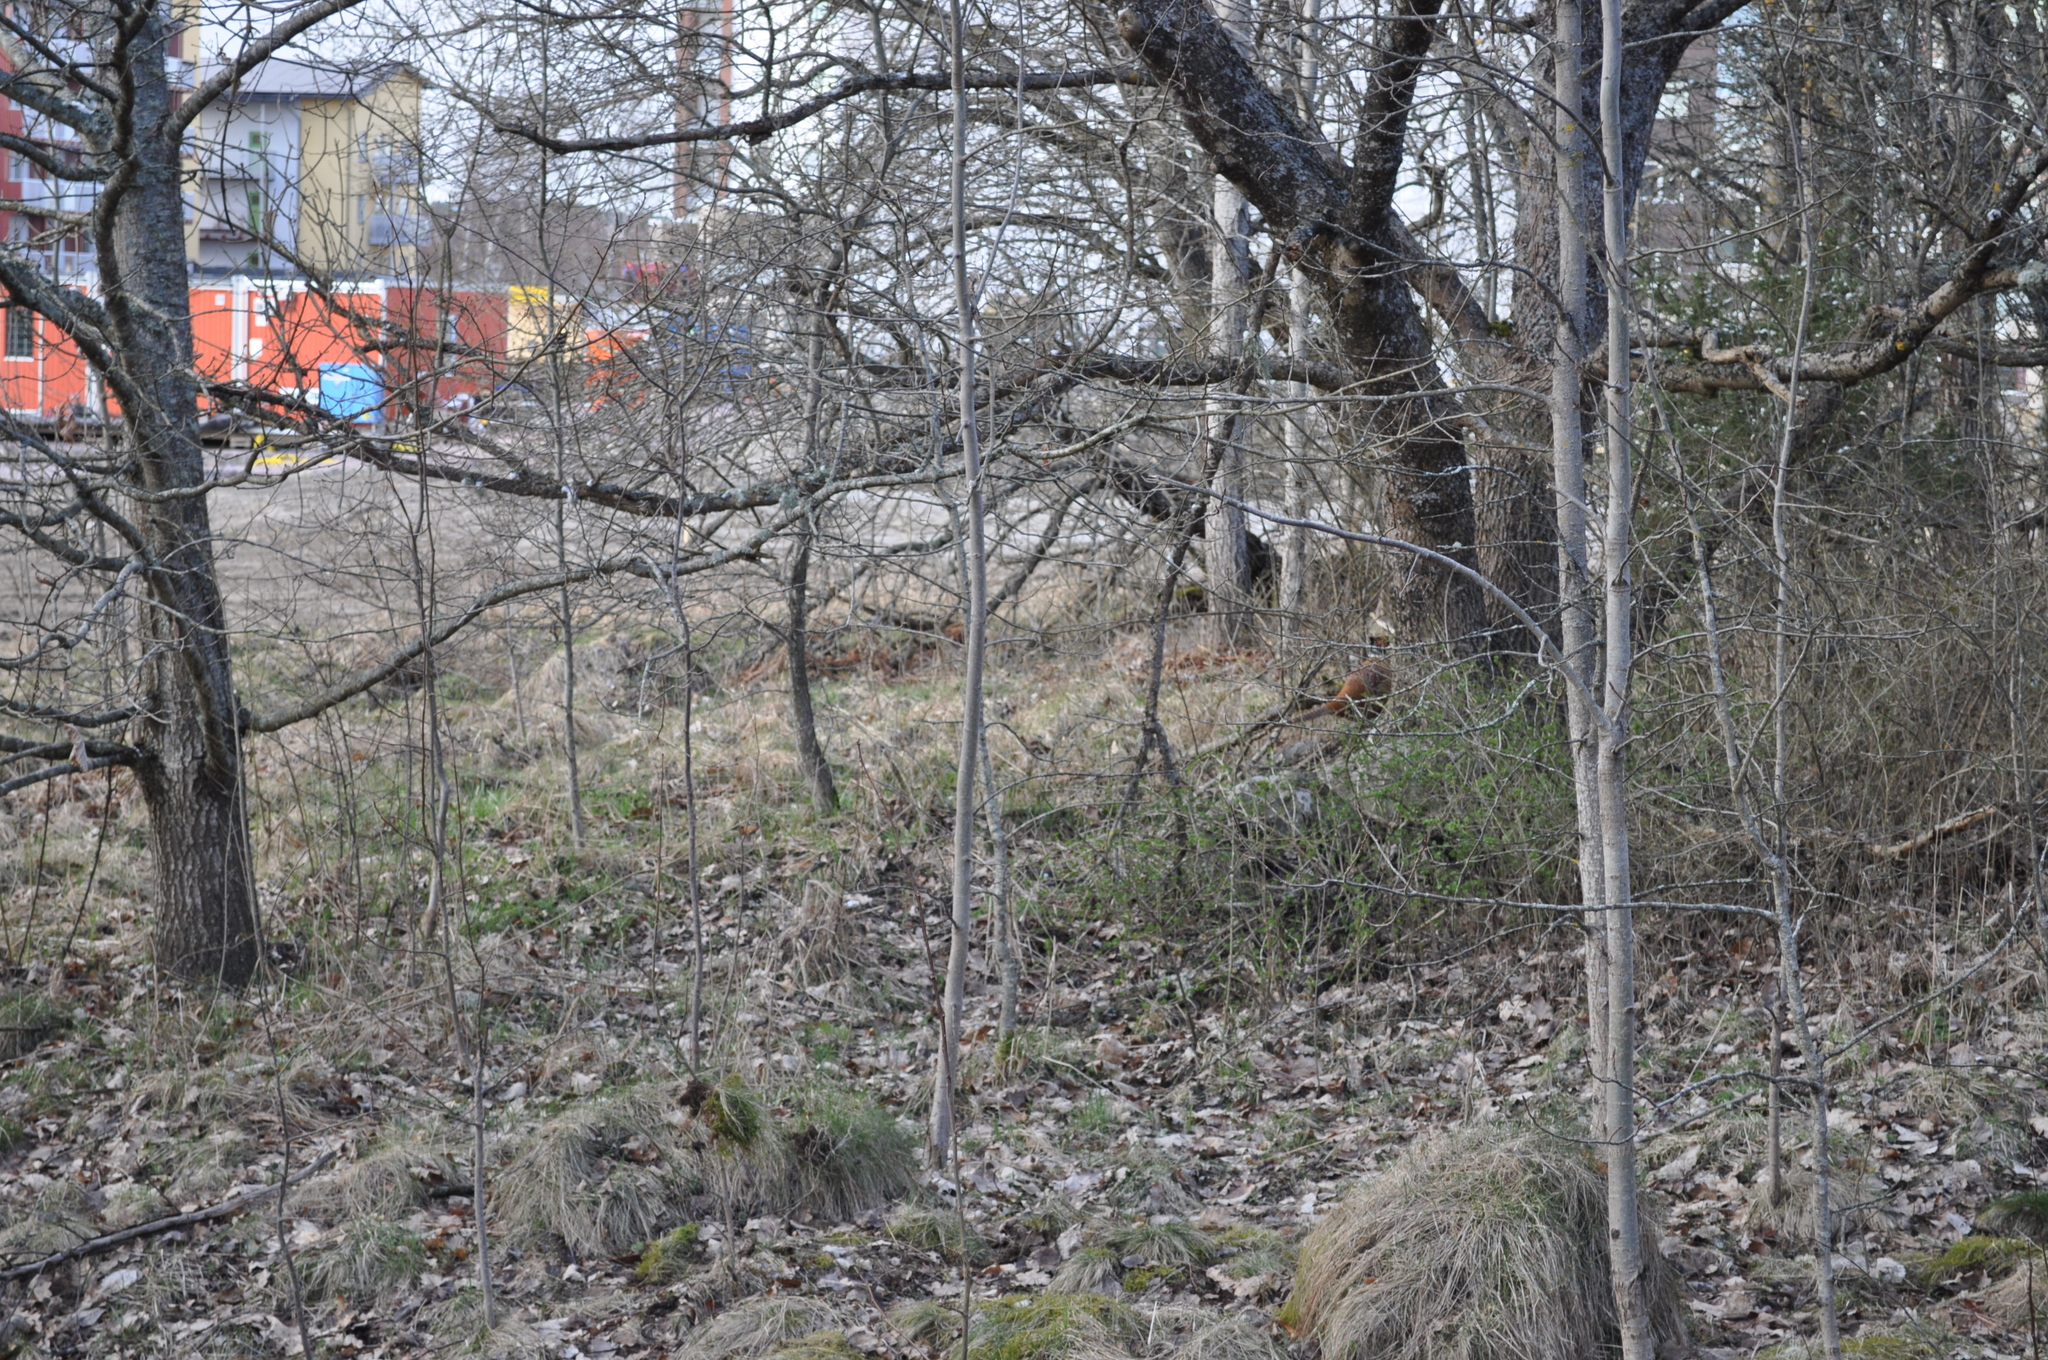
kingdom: Animalia
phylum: Chordata
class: Aves
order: Galliformes
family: Phasianidae
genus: Phasianus
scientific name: Phasianus colchicus
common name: Common pheasant
